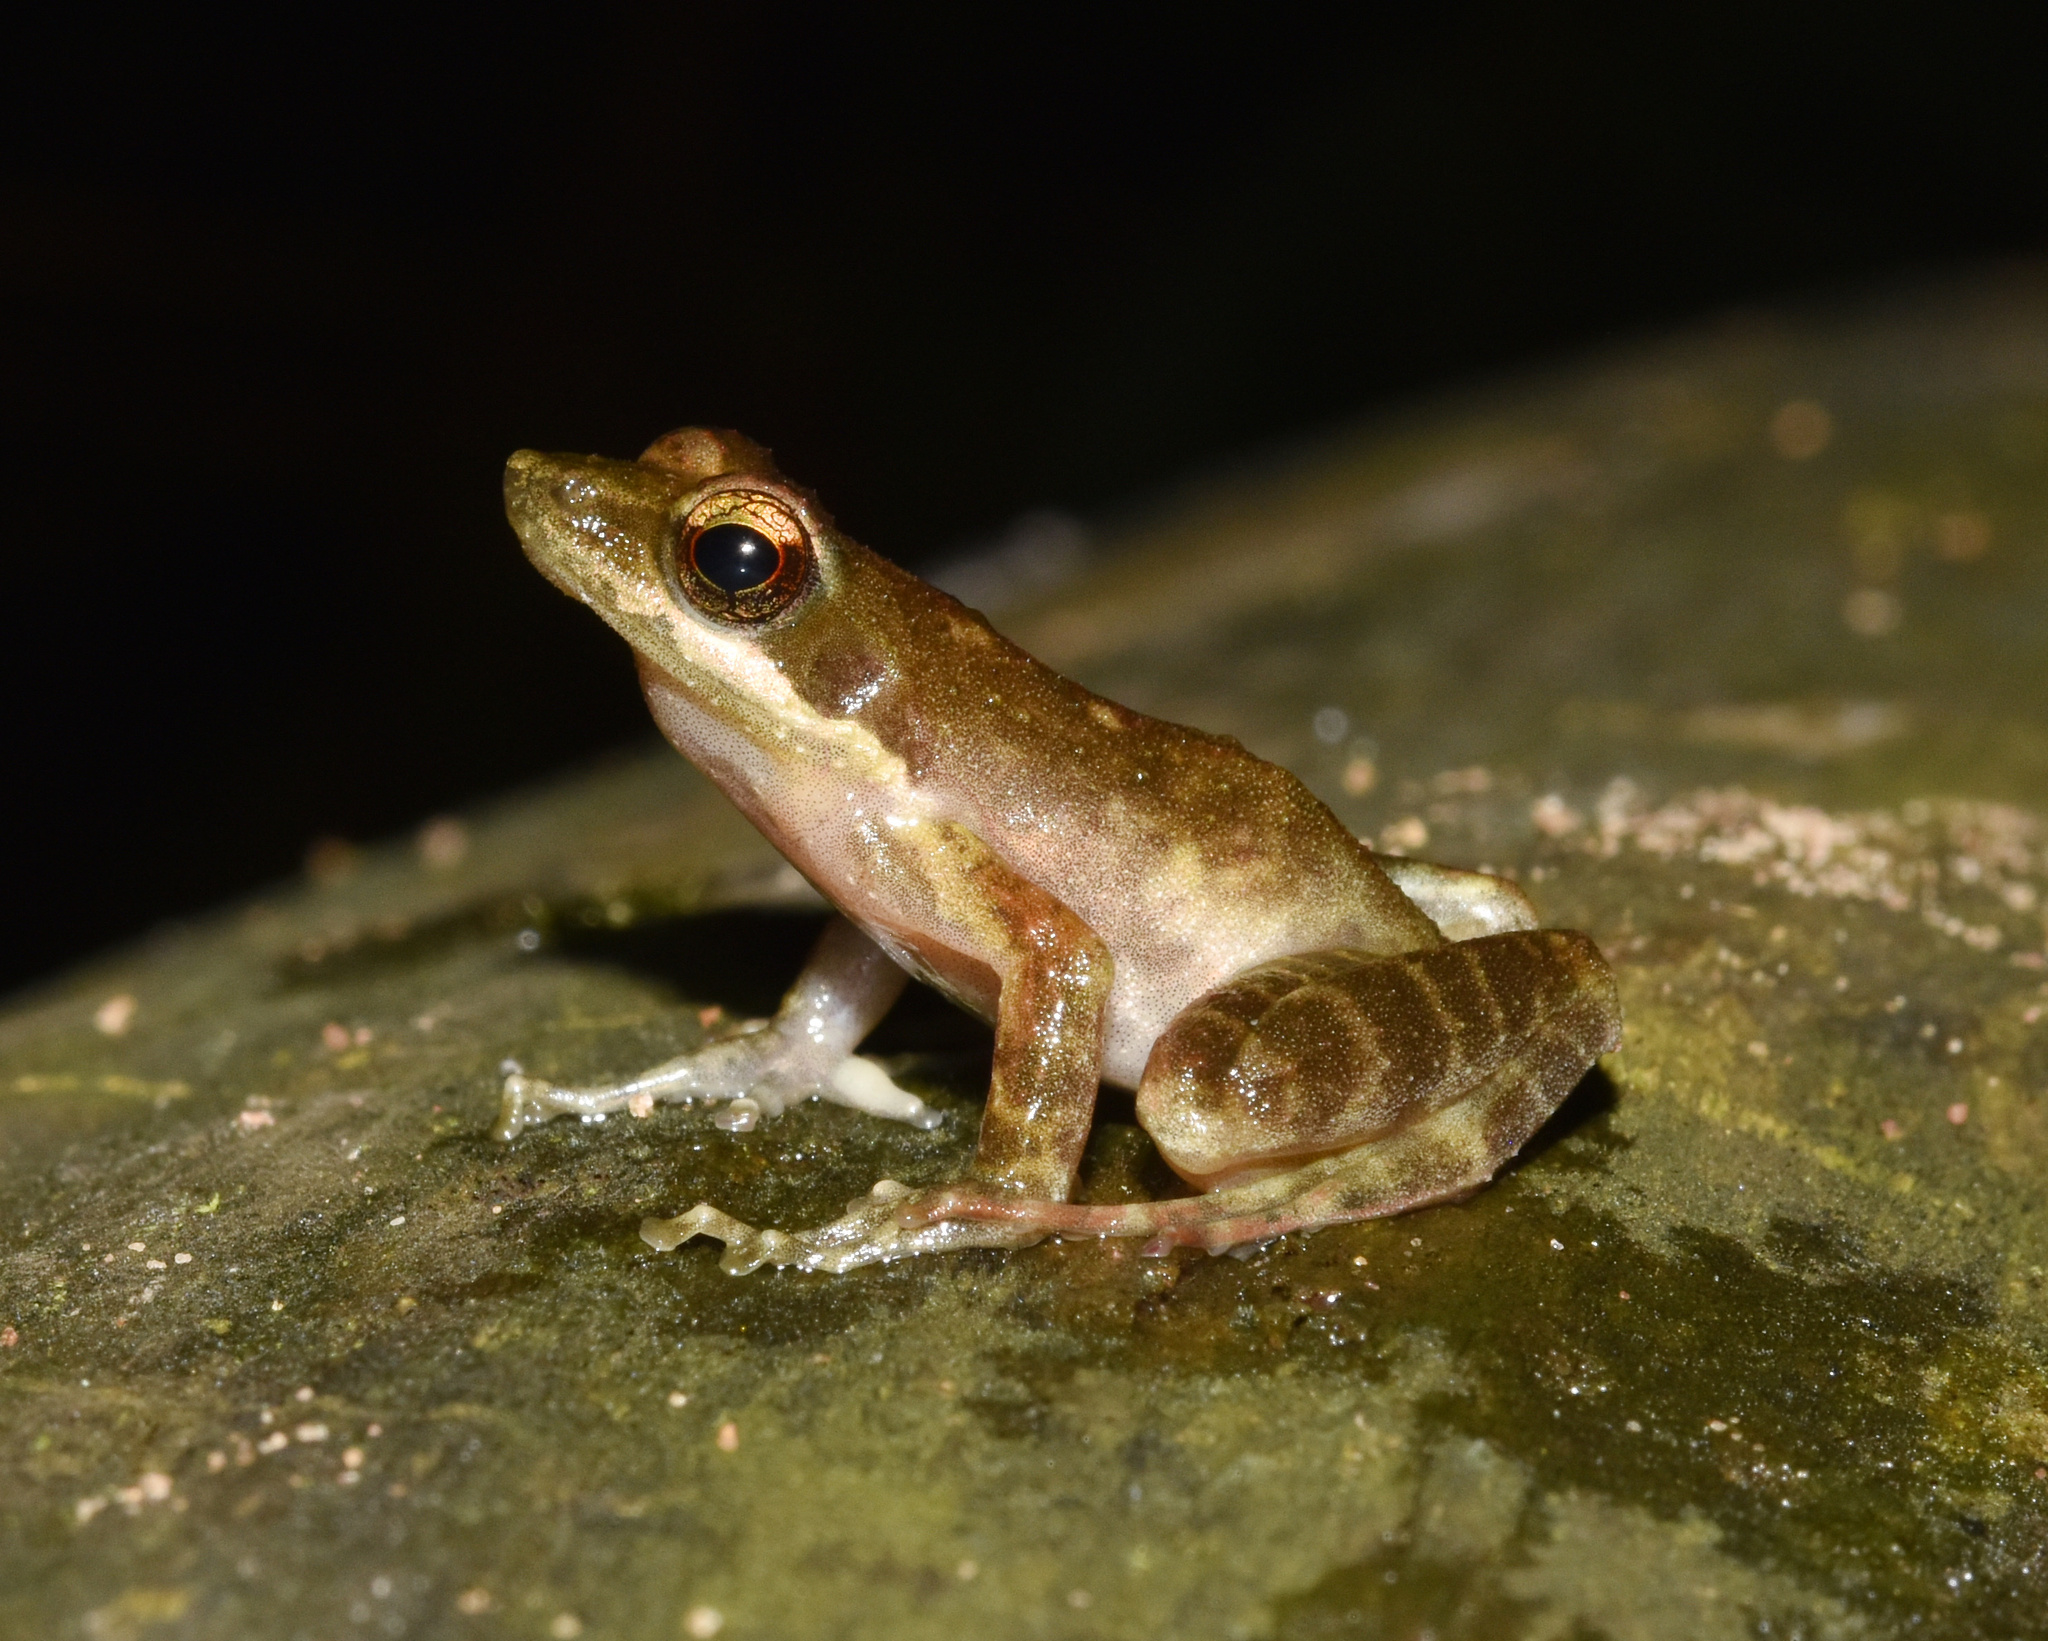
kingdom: Animalia
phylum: Chordata
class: Amphibia
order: Anura
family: Pyxicephalidae
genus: Natalobatrachus
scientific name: Natalobatrachus bonebergi
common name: Natal diving frog
